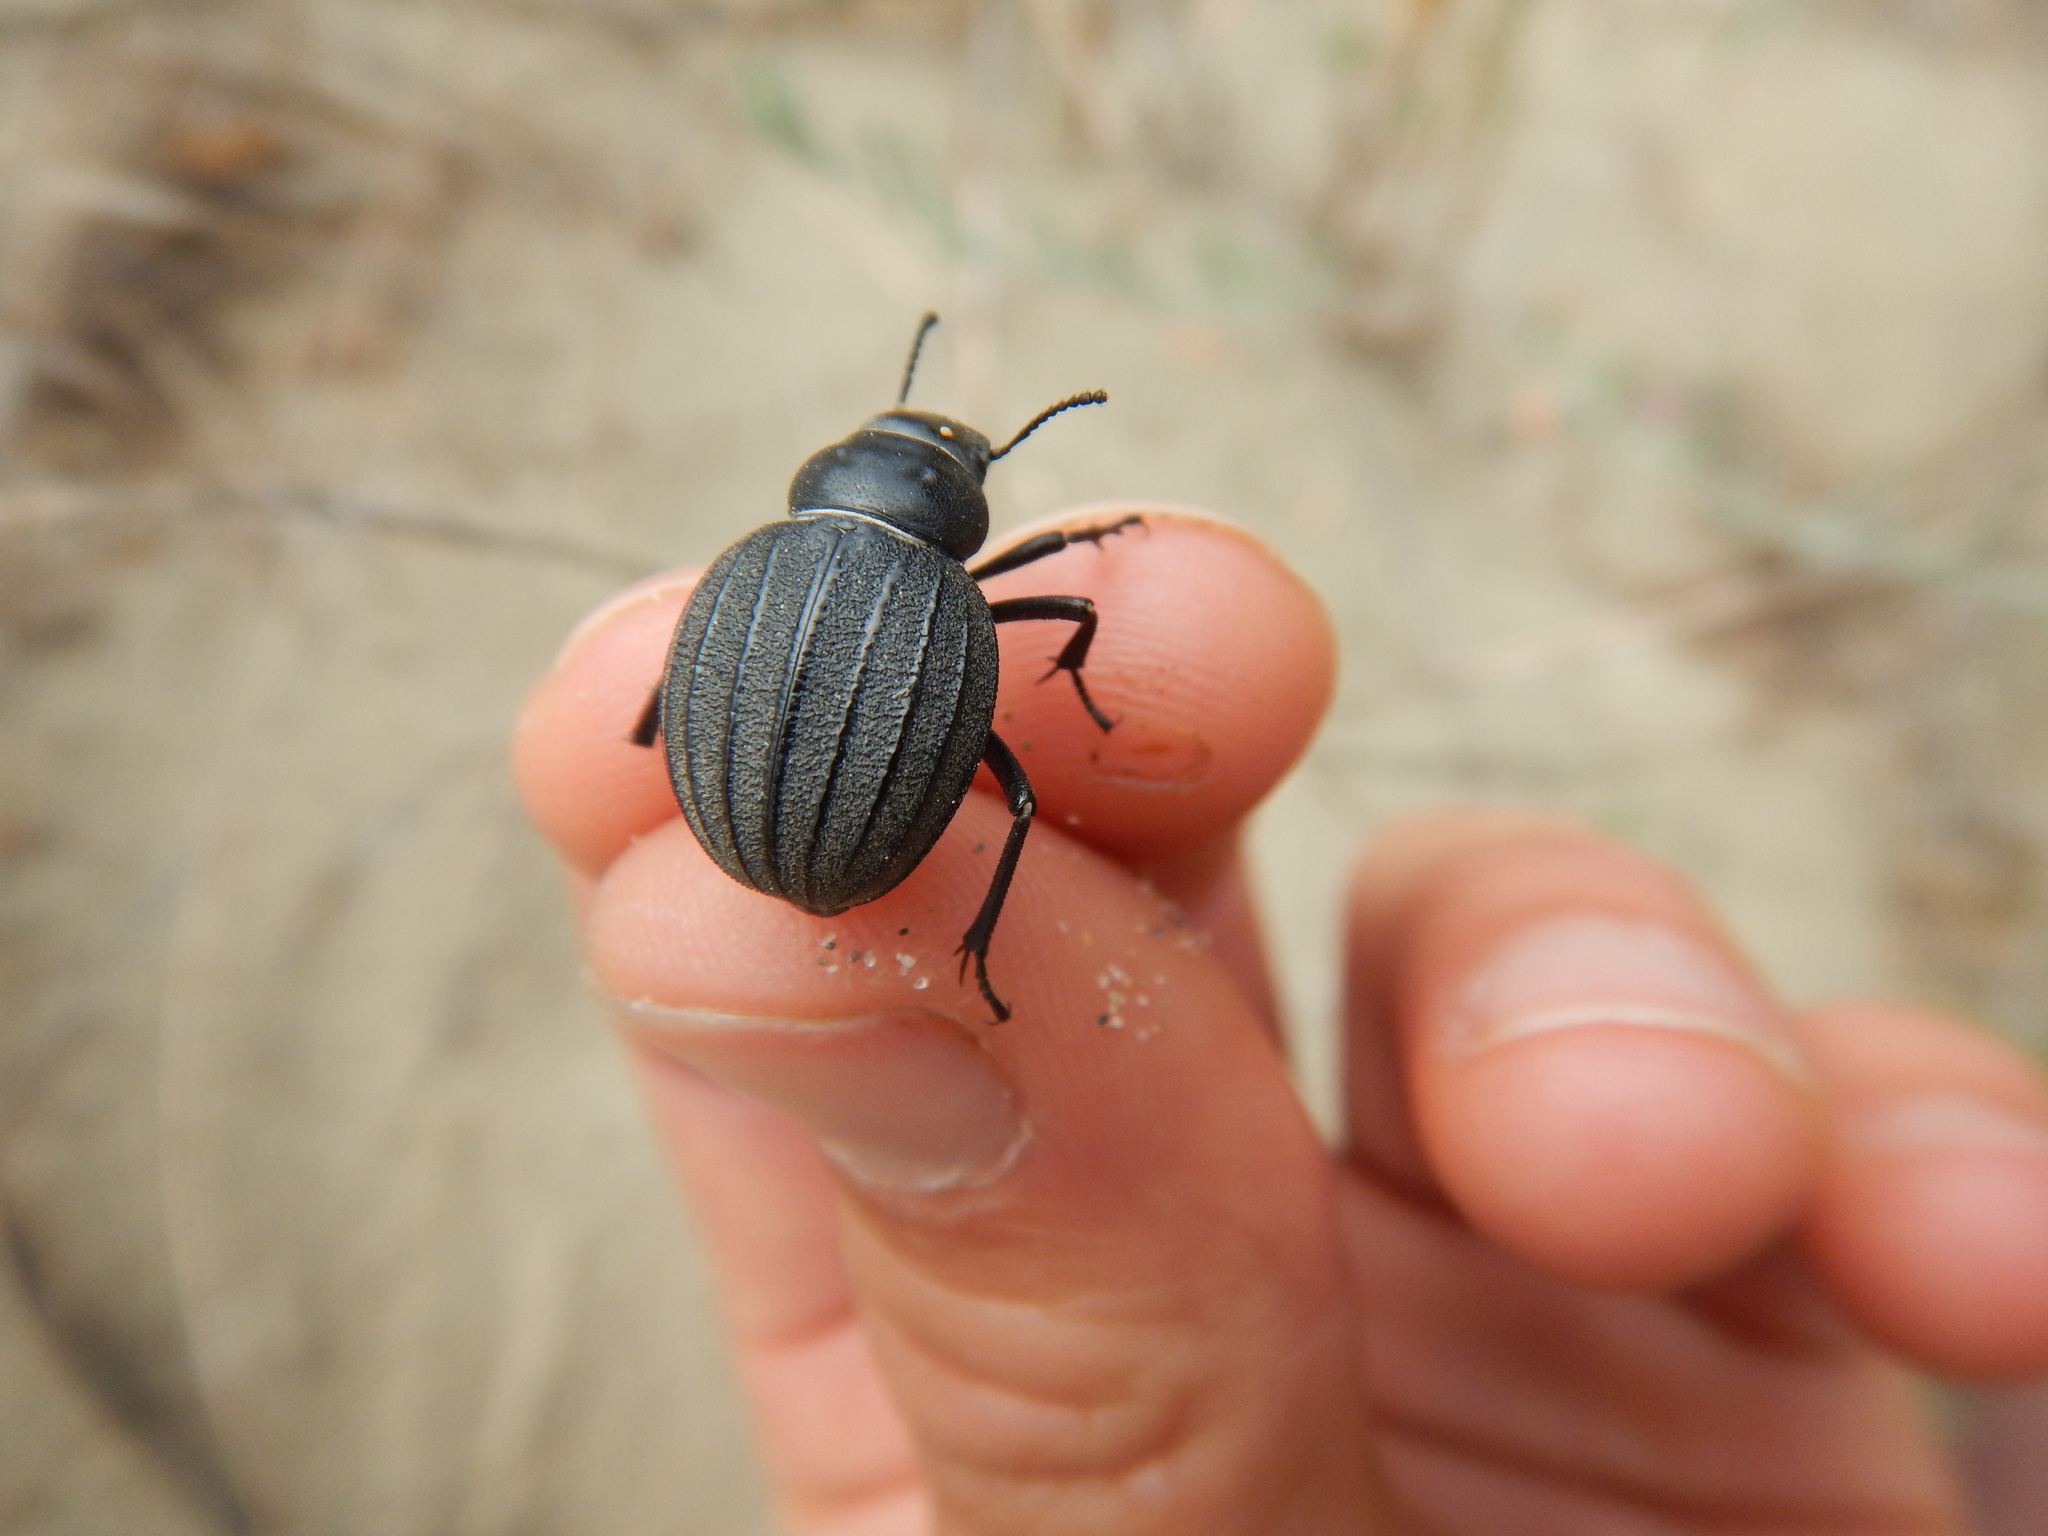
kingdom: Animalia
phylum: Arthropoda
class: Insecta
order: Coleoptera
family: Tenebrionidae
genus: Pimelia
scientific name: Pimelia muricata
